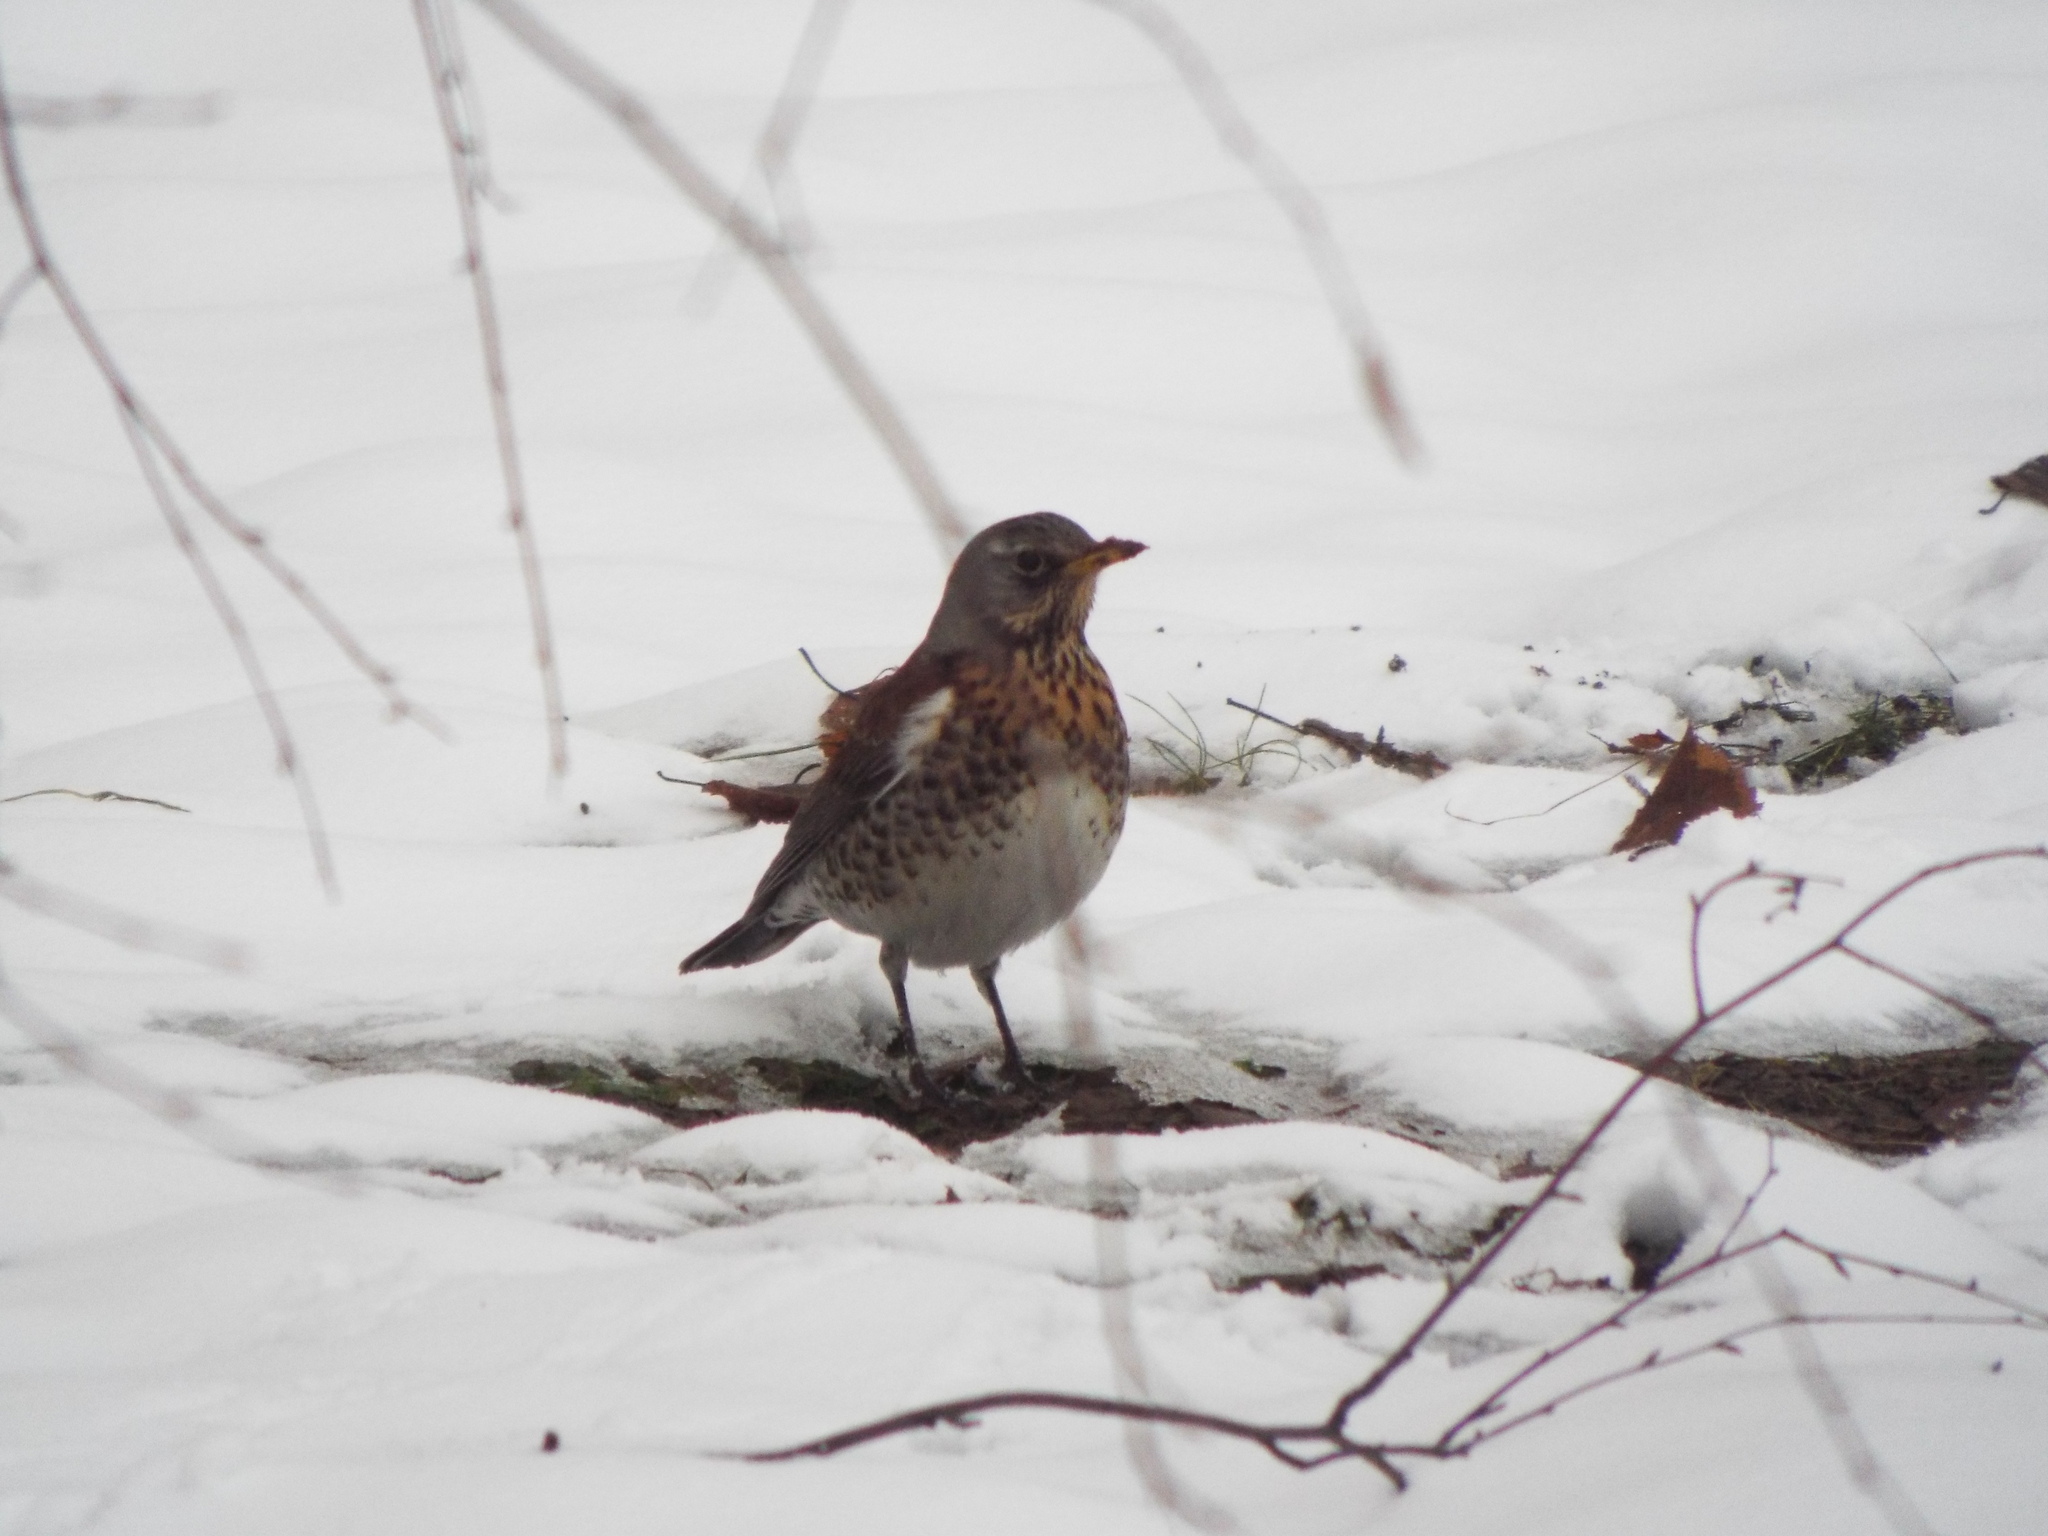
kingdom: Animalia
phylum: Chordata
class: Aves
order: Passeriformes
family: Turdidae
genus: Turdus
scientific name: Turdus pilaris
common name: Fieldfare
